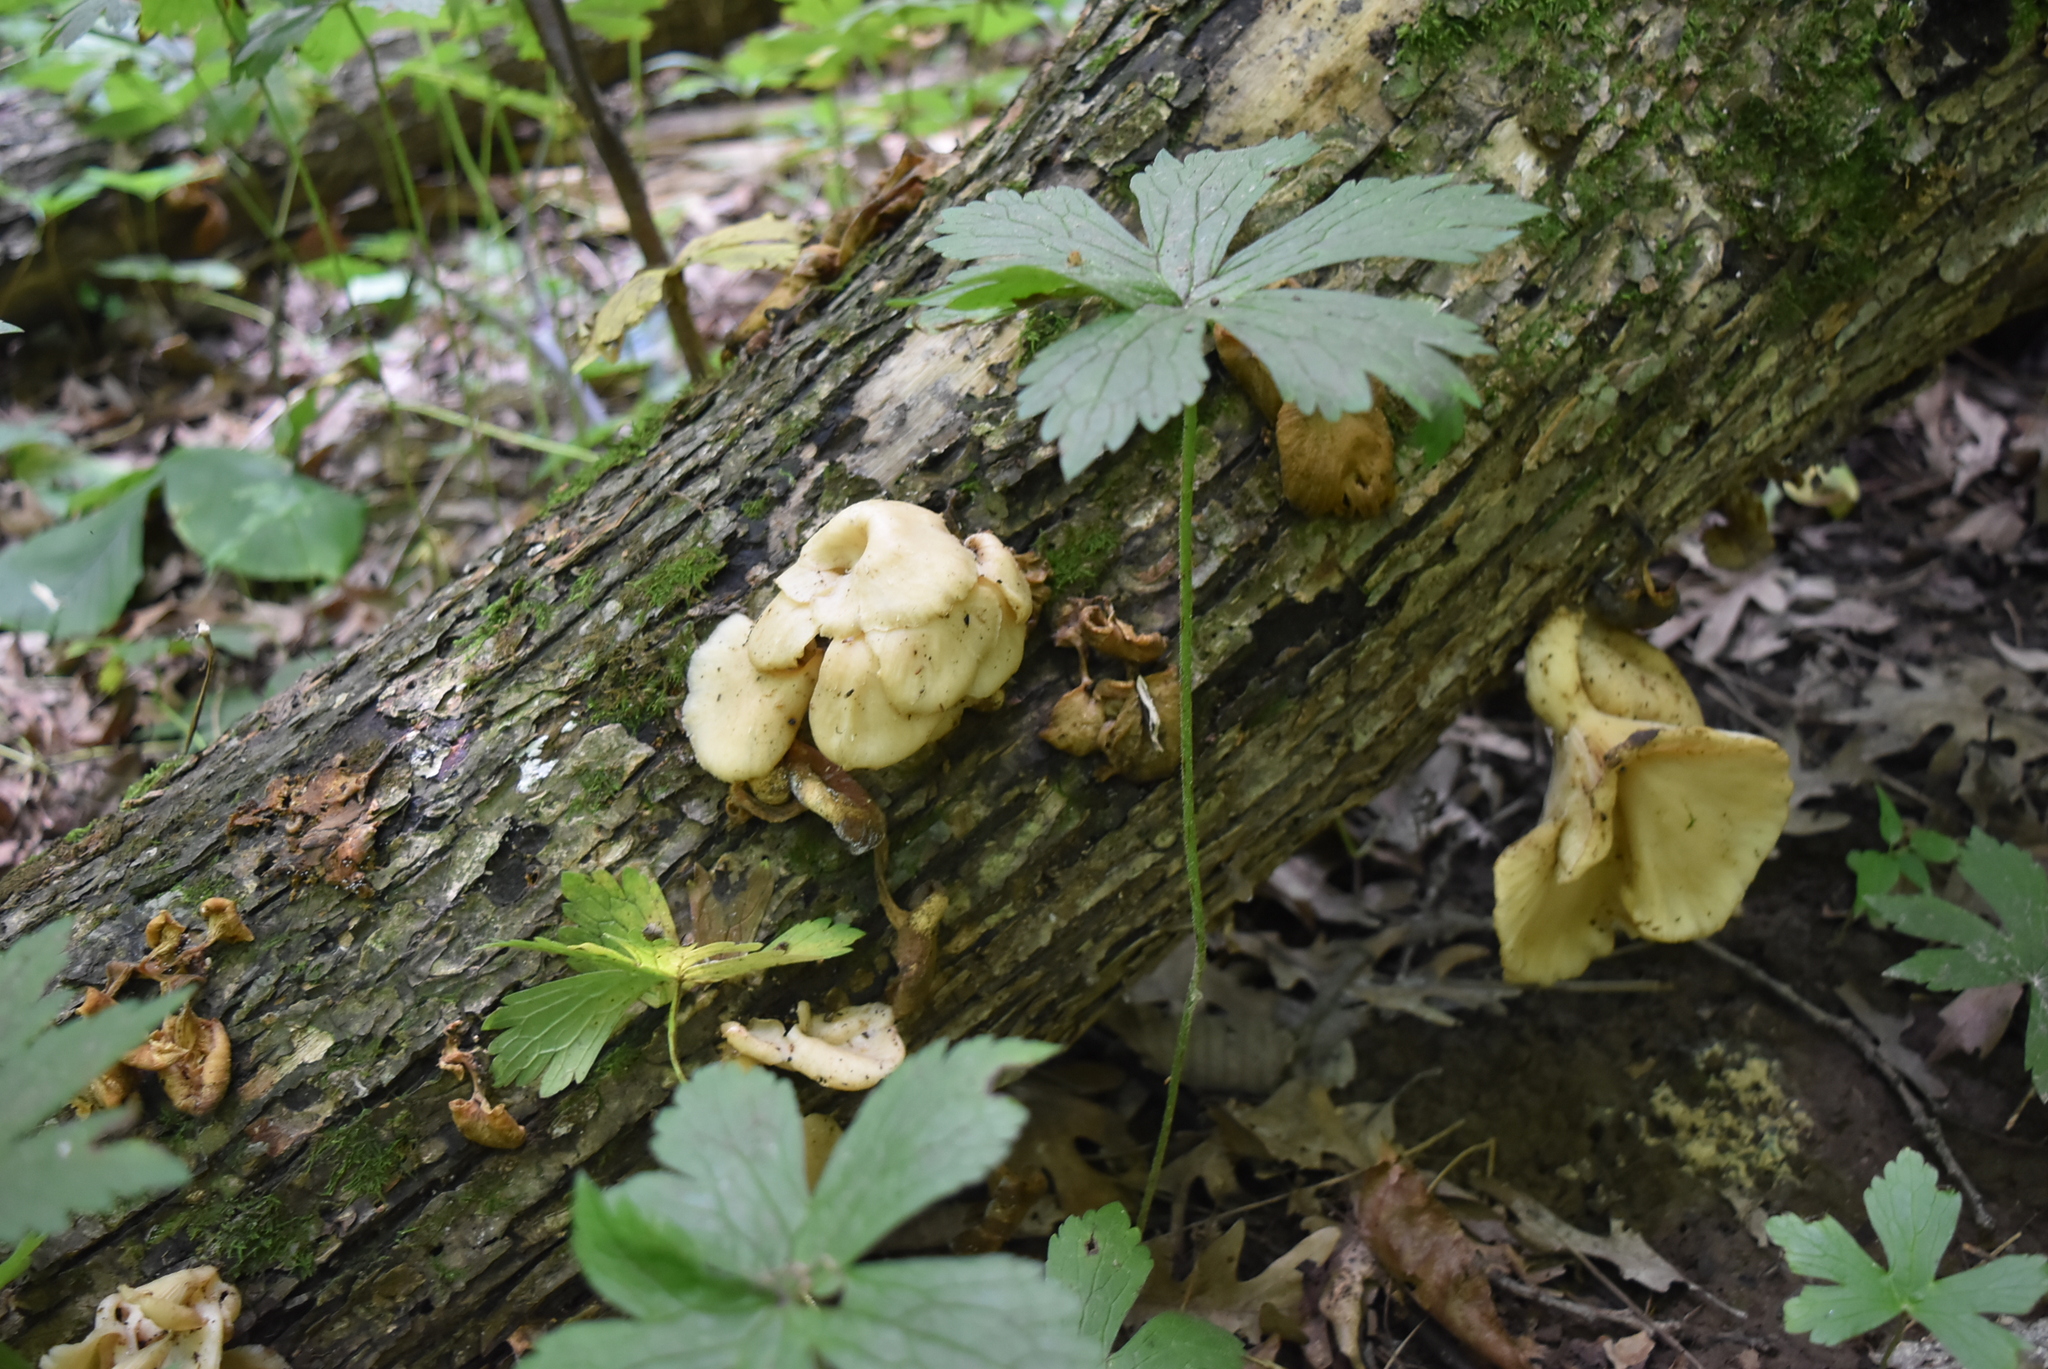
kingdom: Fungi
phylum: Basidiomycota
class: Agaricomycetes
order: Agaricales
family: Pleurotaceae
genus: Pleurotus
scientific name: Pleurotus citrinopileatus
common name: Golden oyster mushroom
